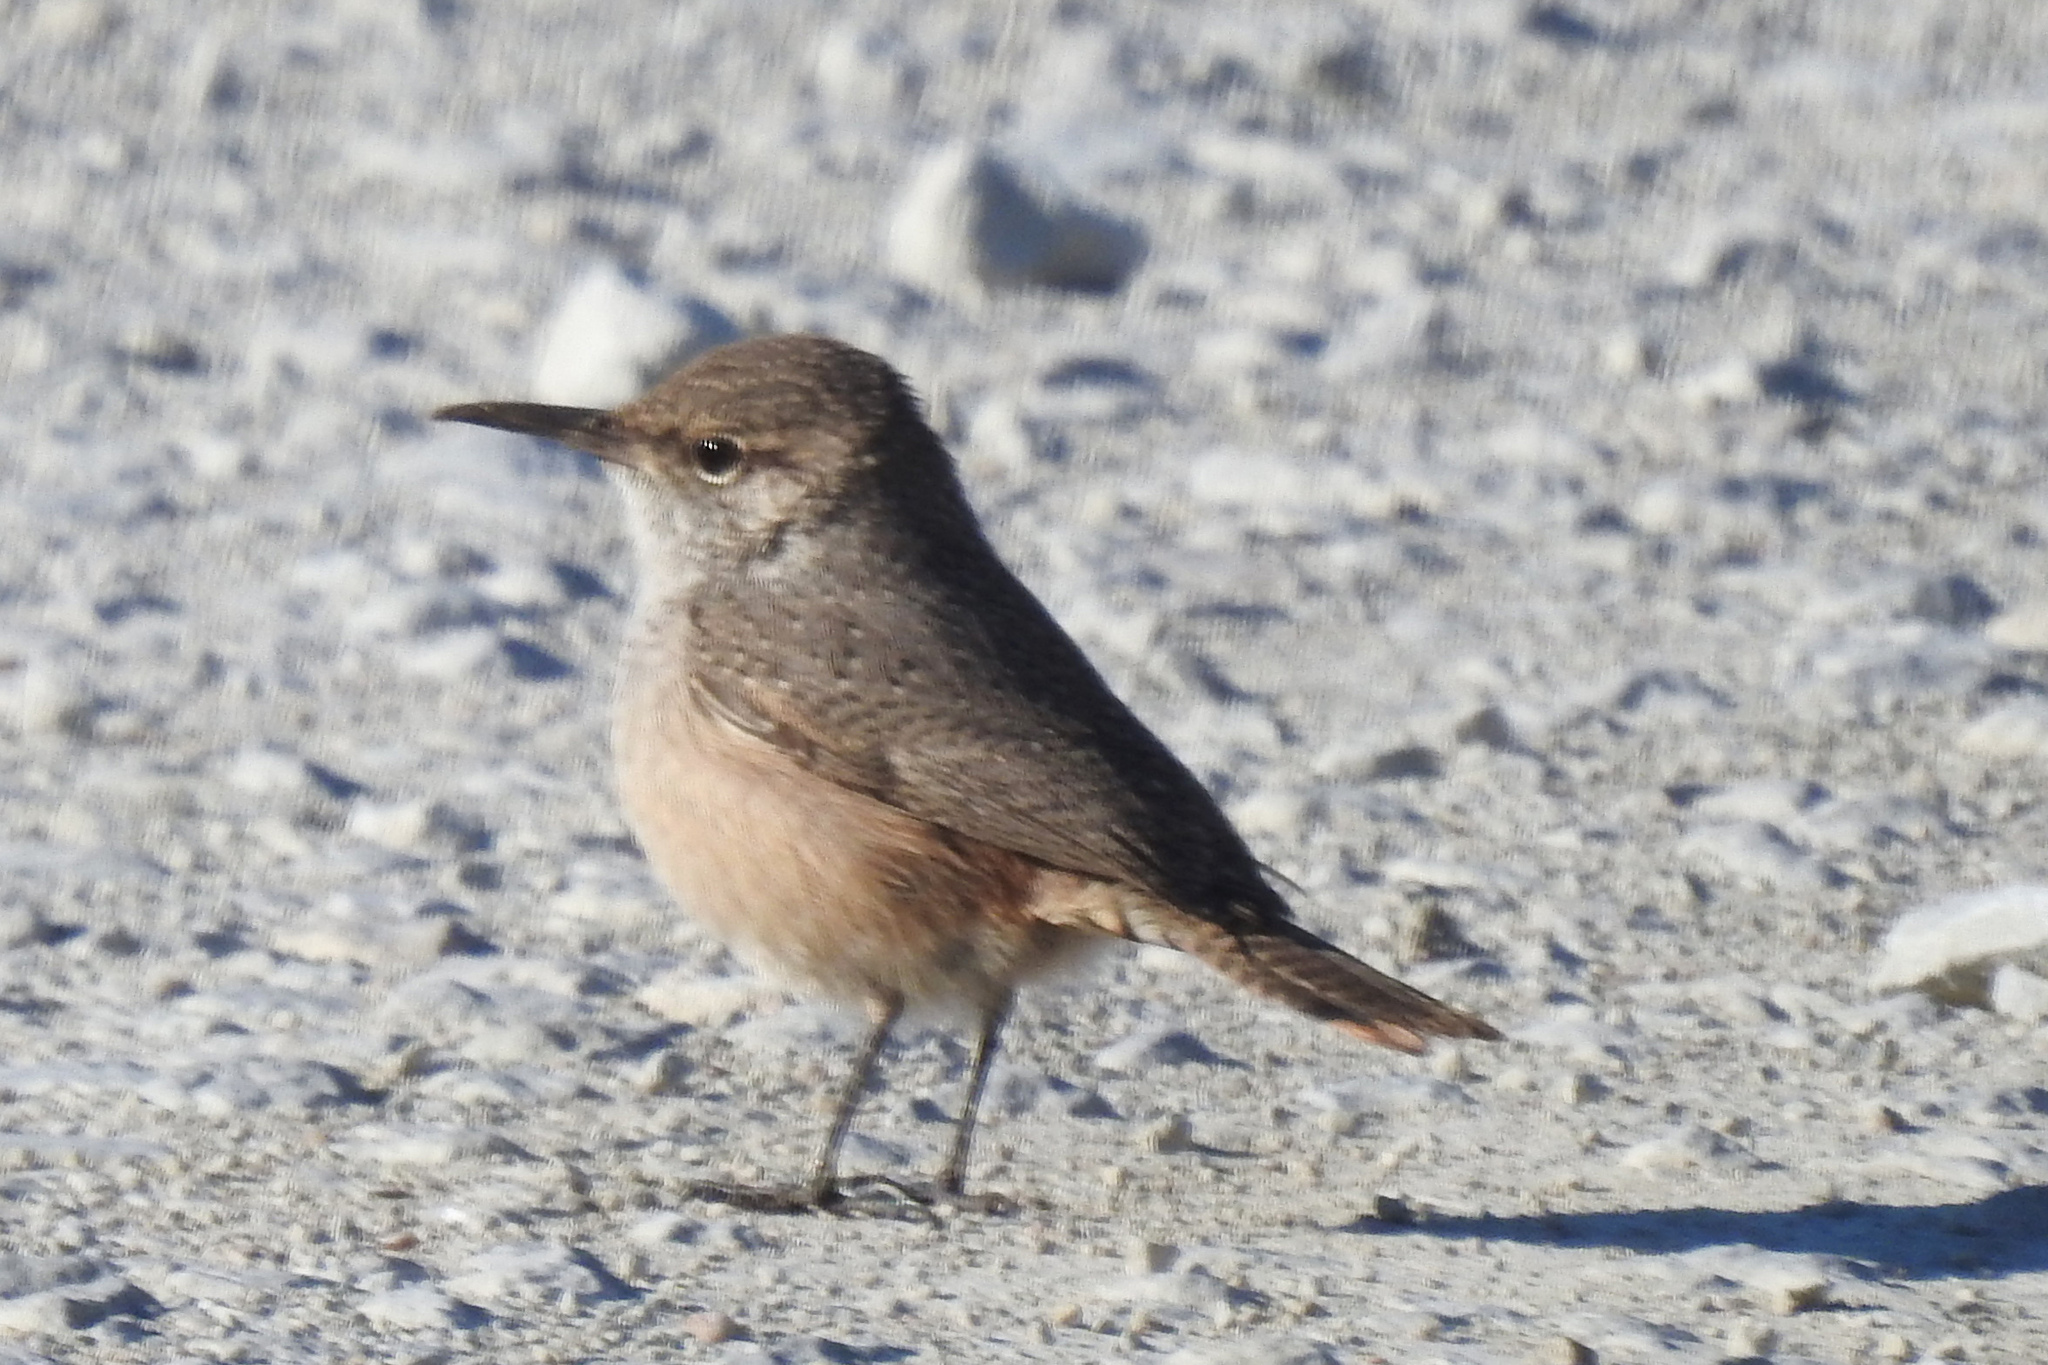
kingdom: Animalia
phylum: Chordata
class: Aves
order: Passeriformes
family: Troglodytidae
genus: Salpinctes
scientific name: Salpinctes obsoletus
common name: Rock wren
